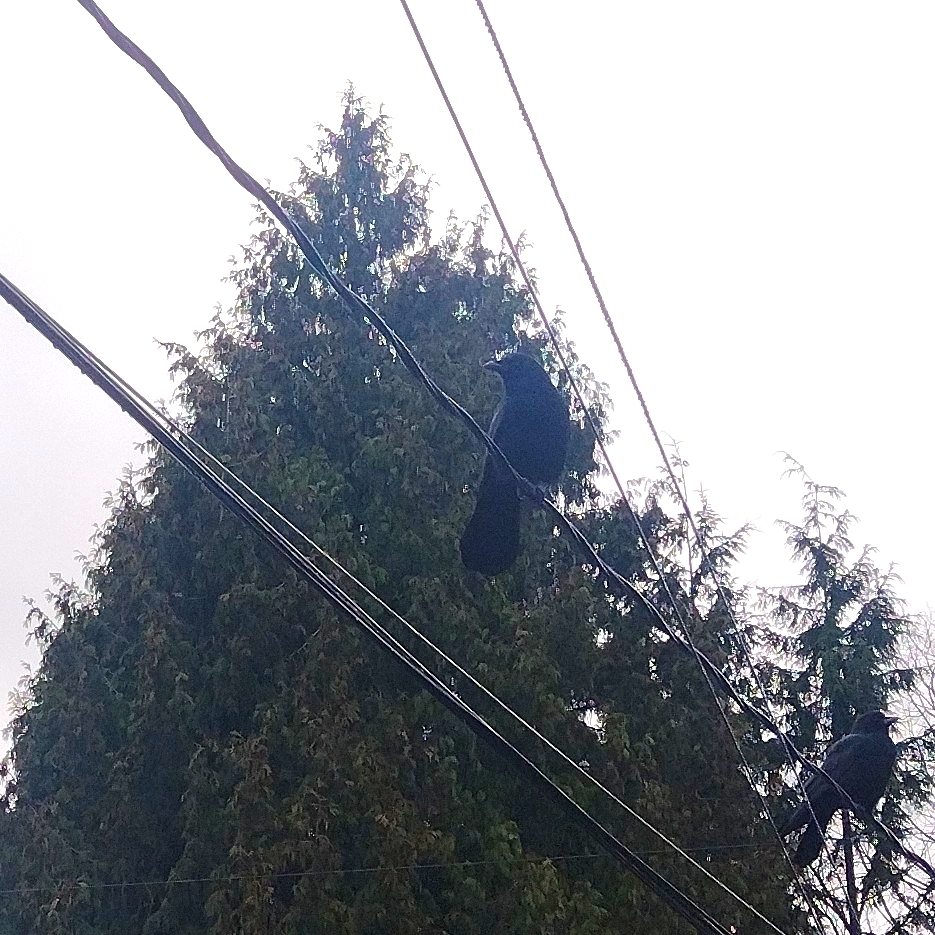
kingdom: Animalia
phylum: Chordata
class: Aves
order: Passeriformes
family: Corvidae
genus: Corvus
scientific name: Corvus brachyrhynchos
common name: American crow
